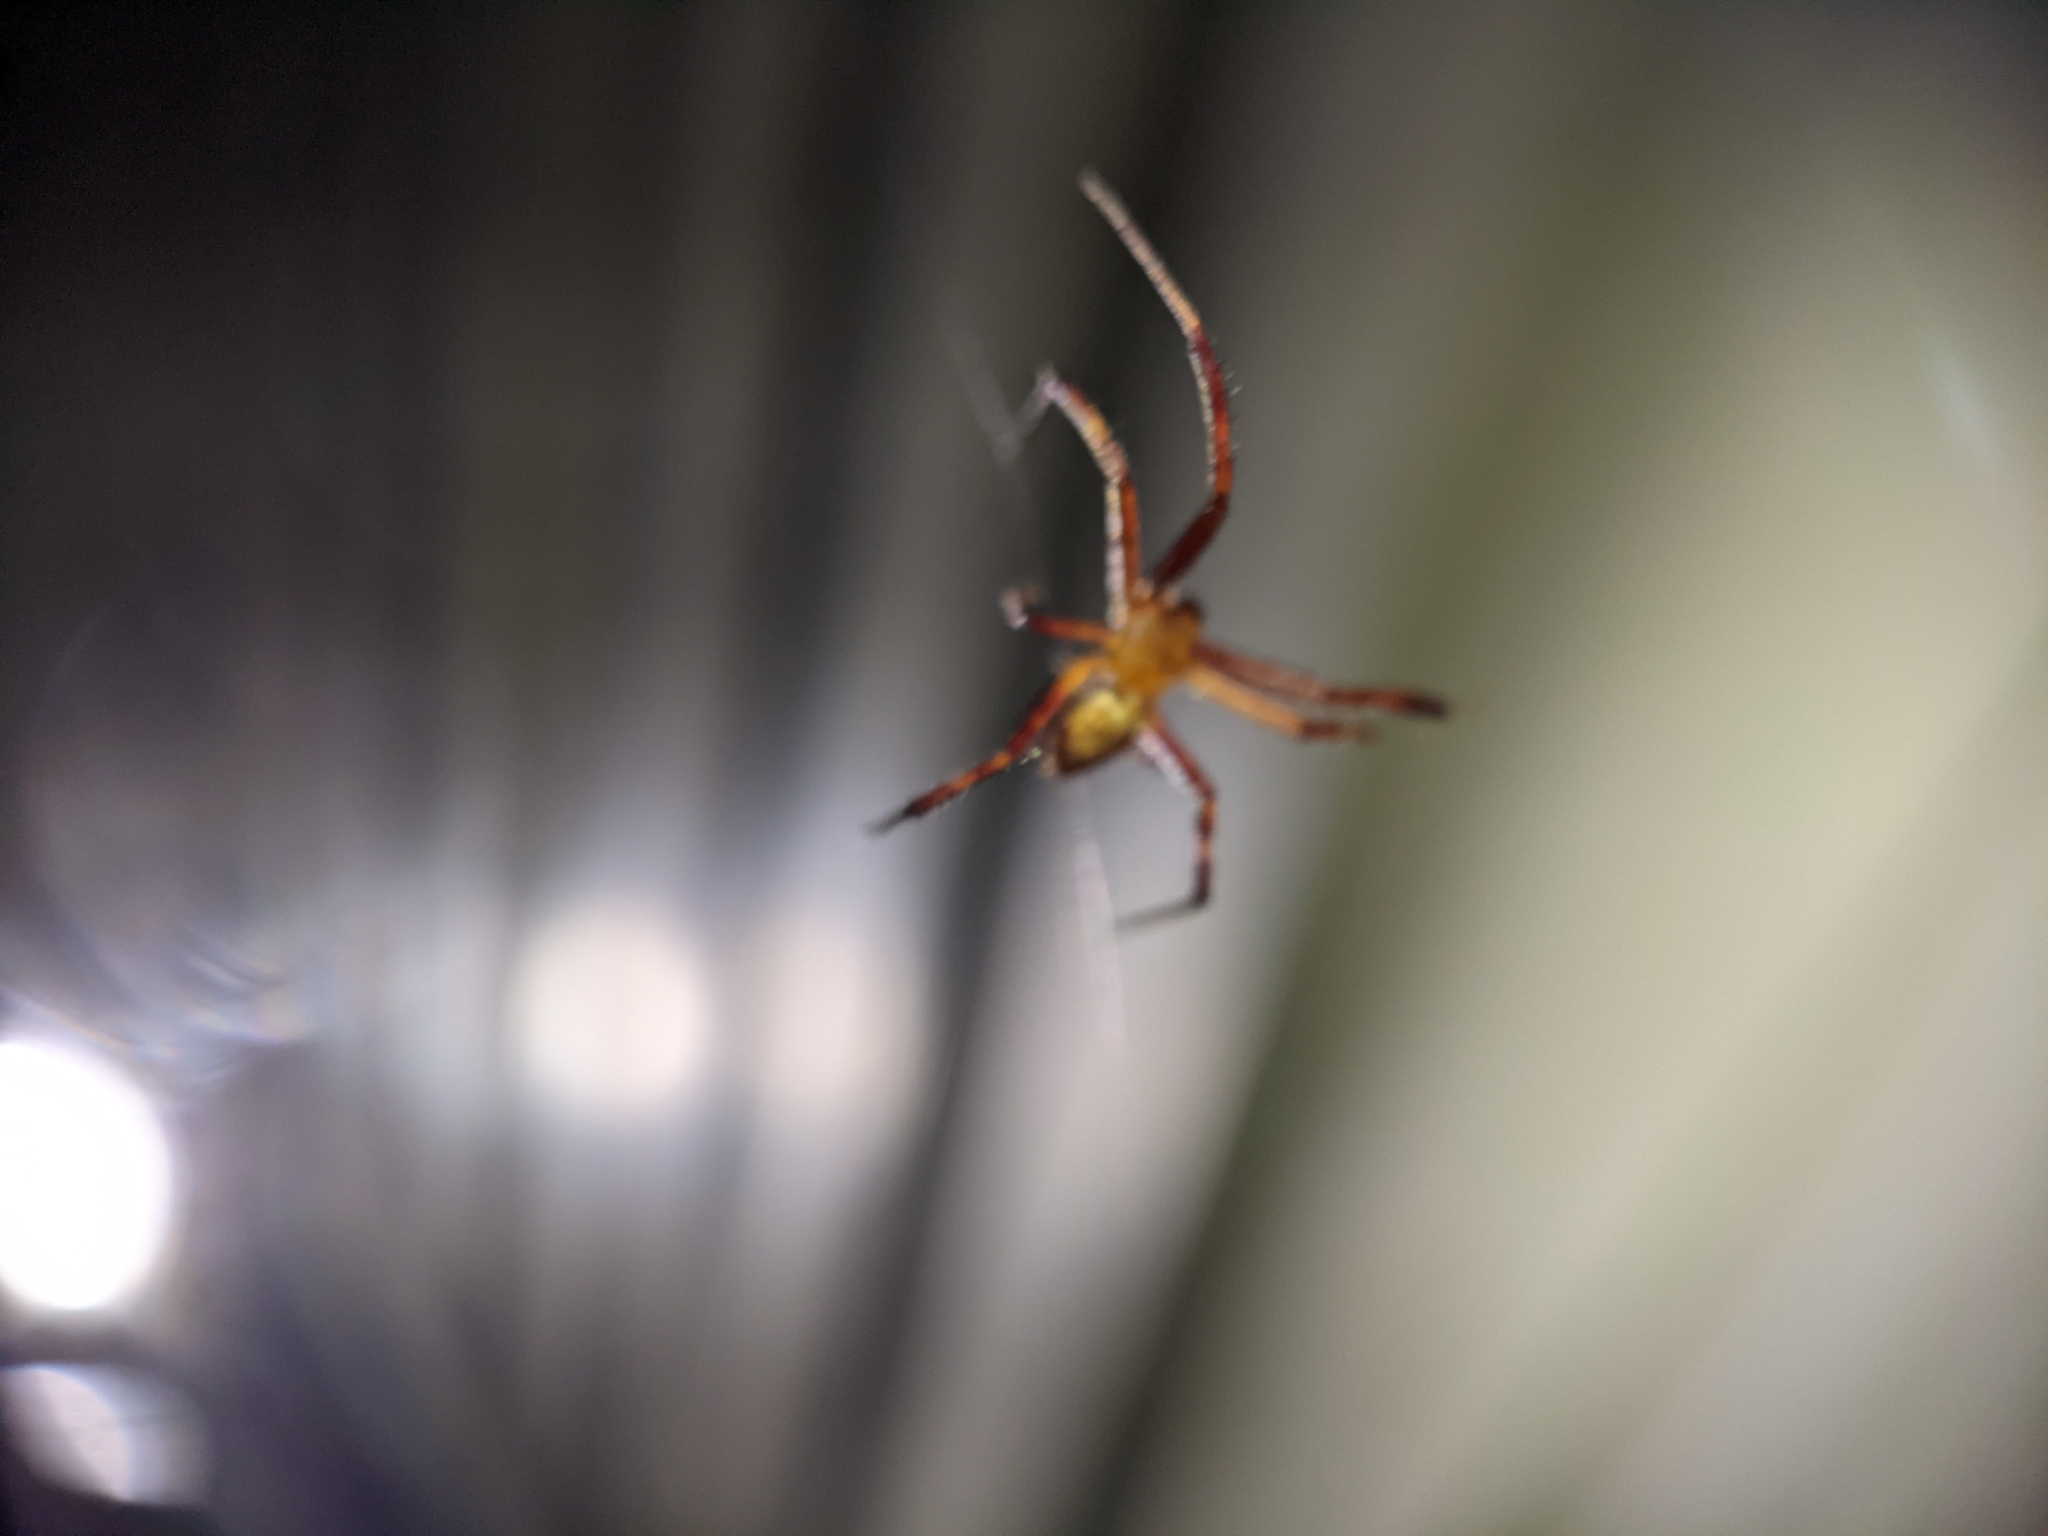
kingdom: Animalia
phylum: Arthropoda
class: Arachnida
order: Araneae
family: Araneidae
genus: Gea
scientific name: Gea heptagon
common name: Orb weavers
